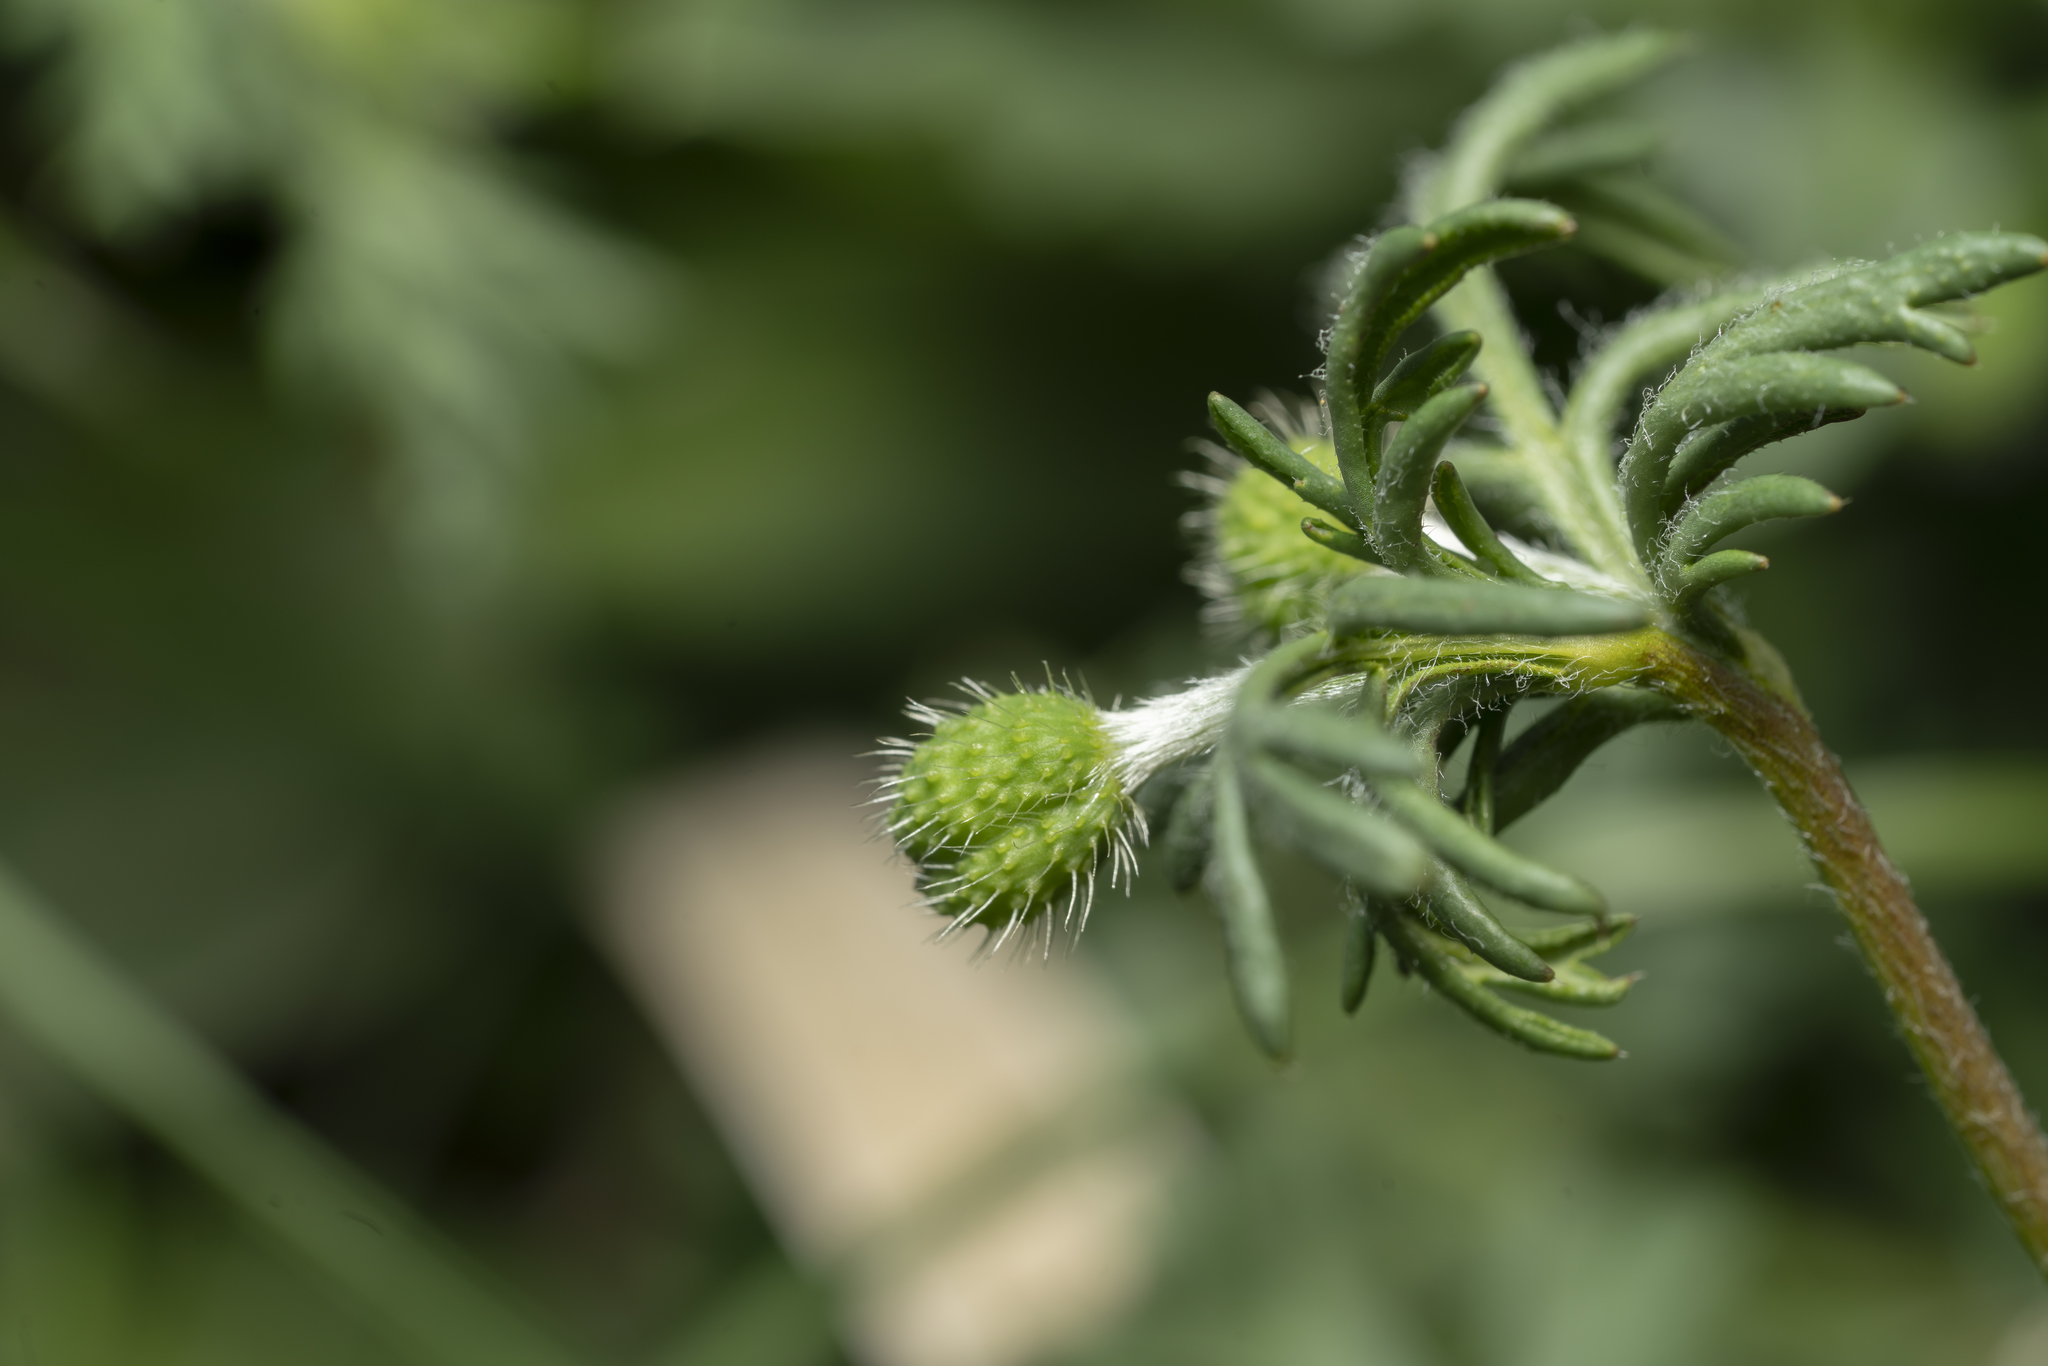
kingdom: Plantae
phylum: Tracheophyta
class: Magnoliopsida
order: Ranunculales
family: Papaveraceae
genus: Roemeria
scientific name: Roemeria hispida
